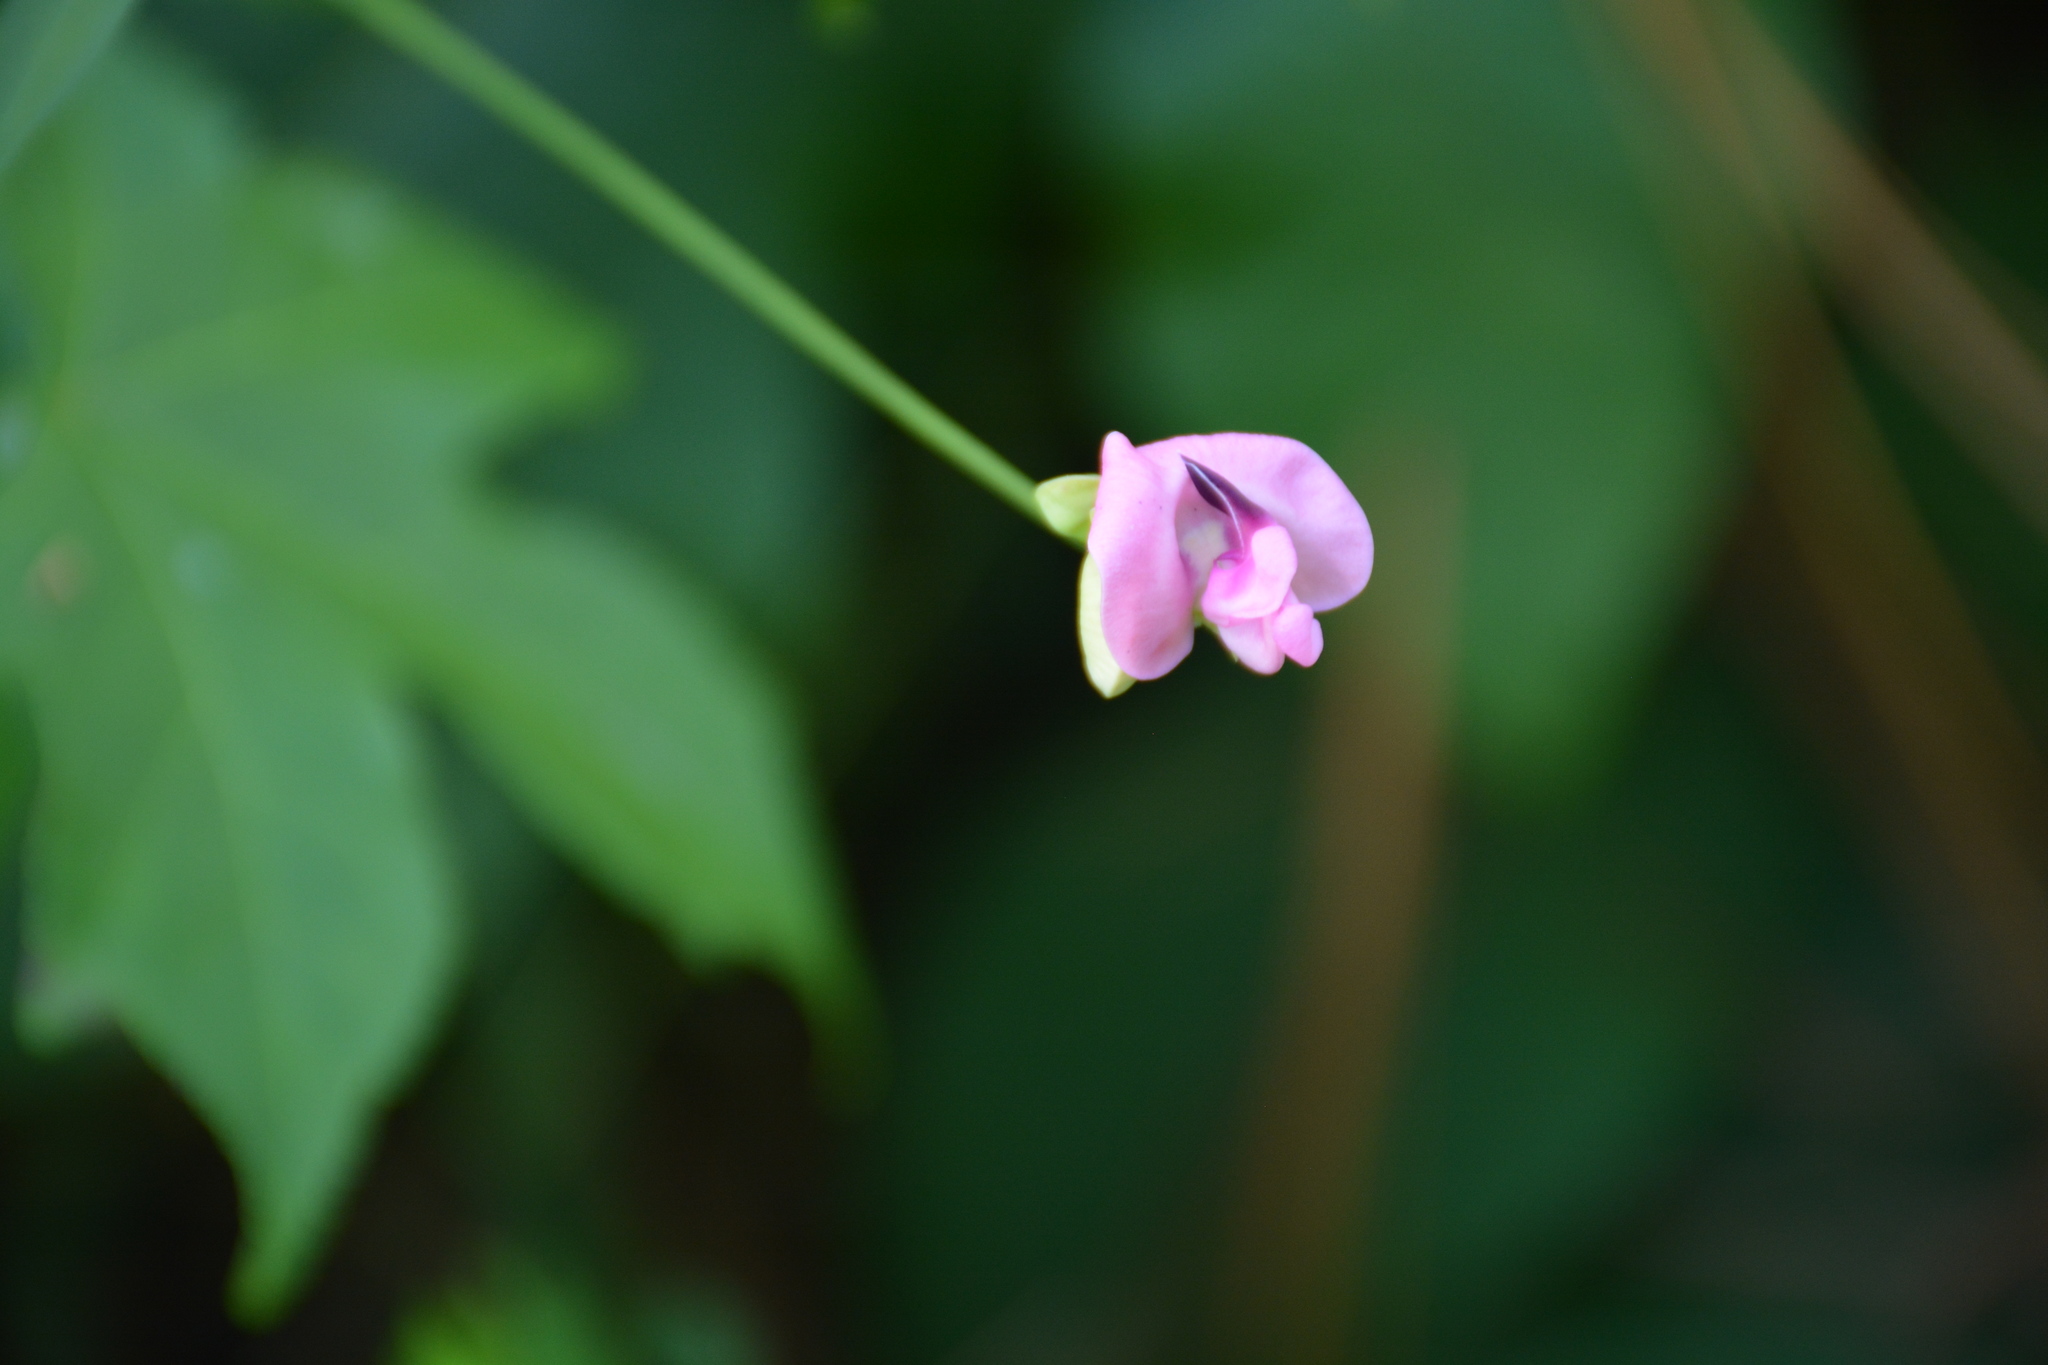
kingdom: Plantae
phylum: Tracheophyta
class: Magnoliopsida
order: Fabales
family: Fabaceae
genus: Strophostyles
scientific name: Strophostyles umbellata
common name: Perennial wild bean
